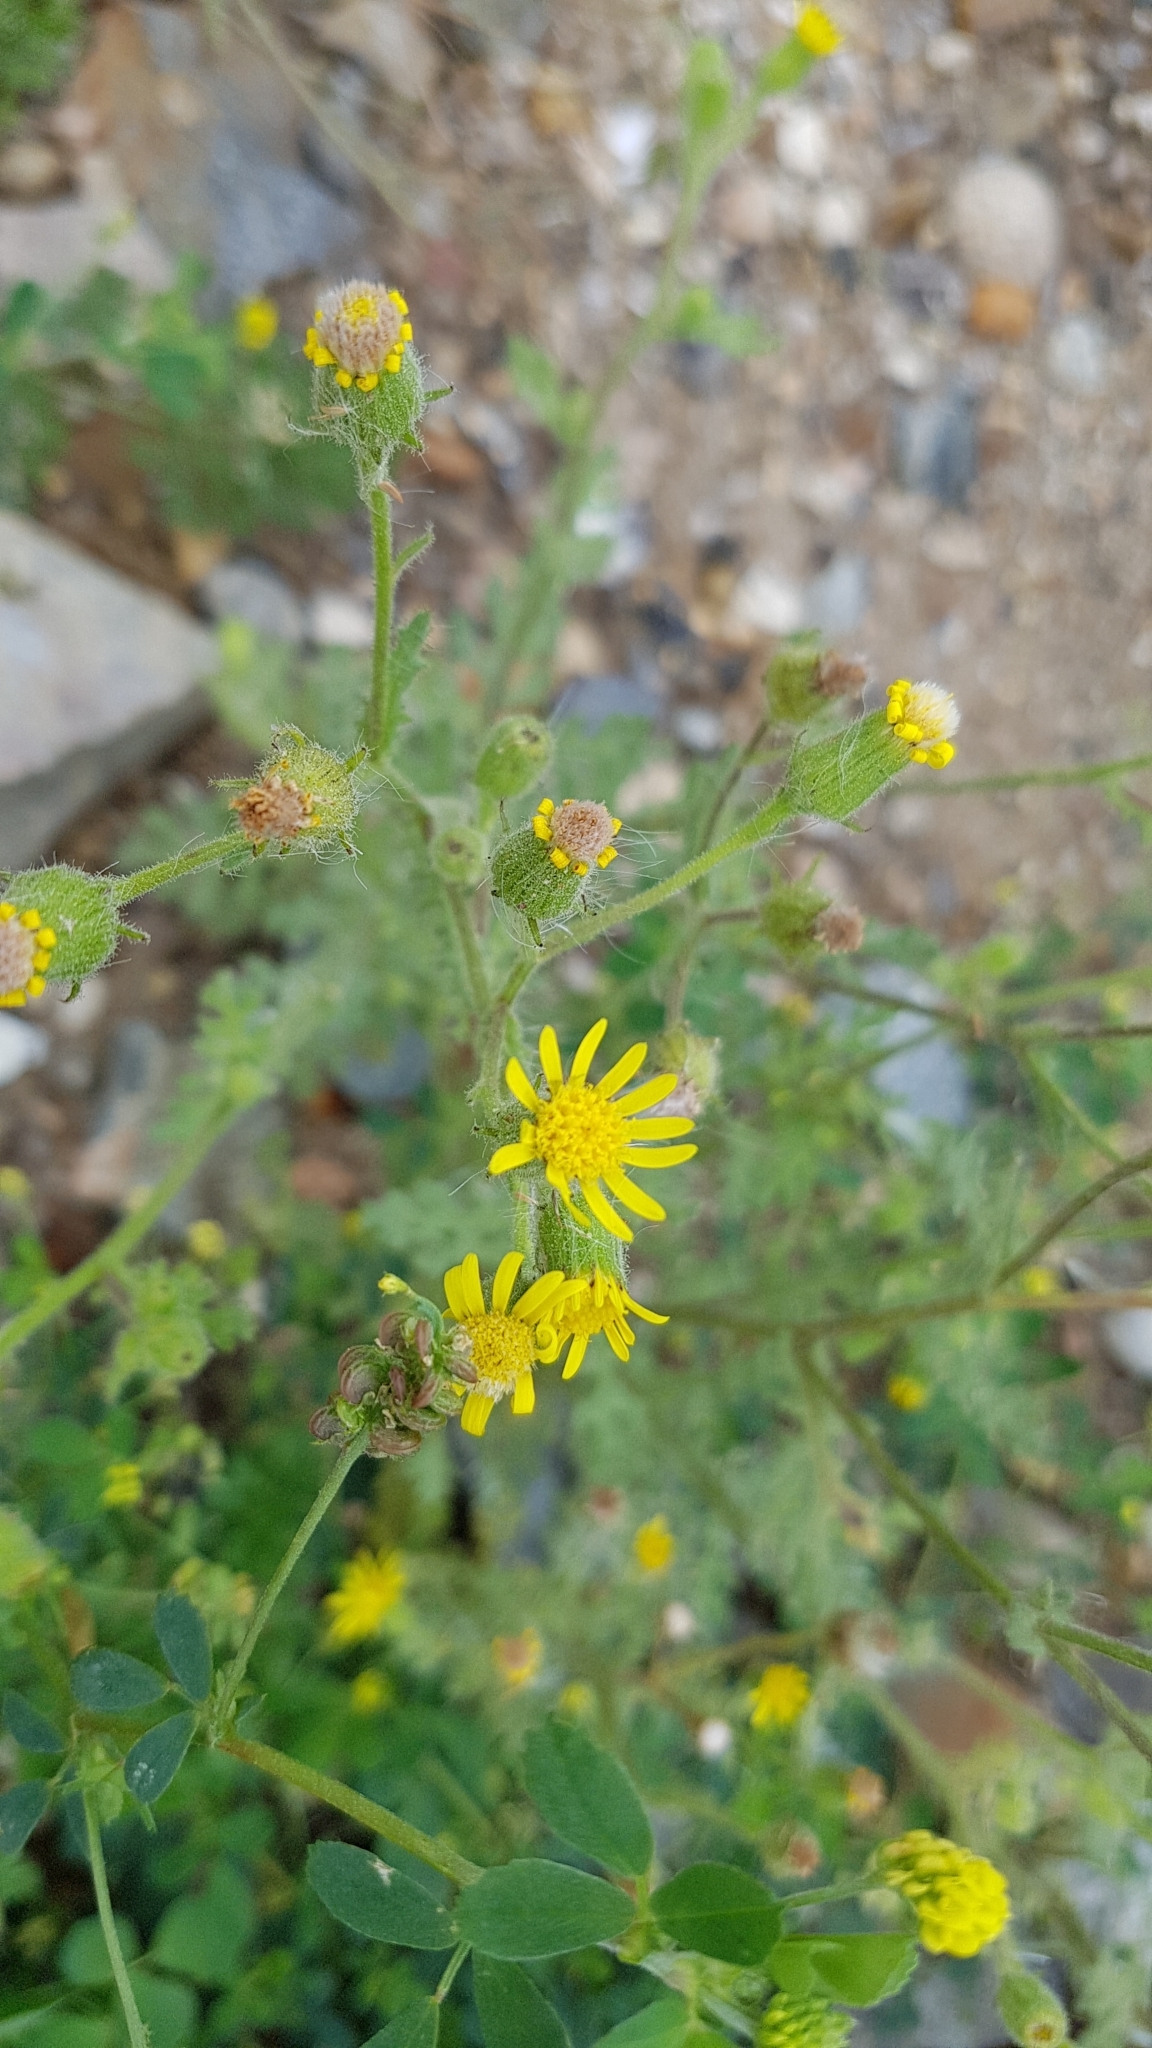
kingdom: Plantae
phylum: Tracheophyta
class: Magnoliopsida
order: Asterales
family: Asteraceae
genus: Senecio
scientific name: Senecio viscosus
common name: Sticky groundsel
